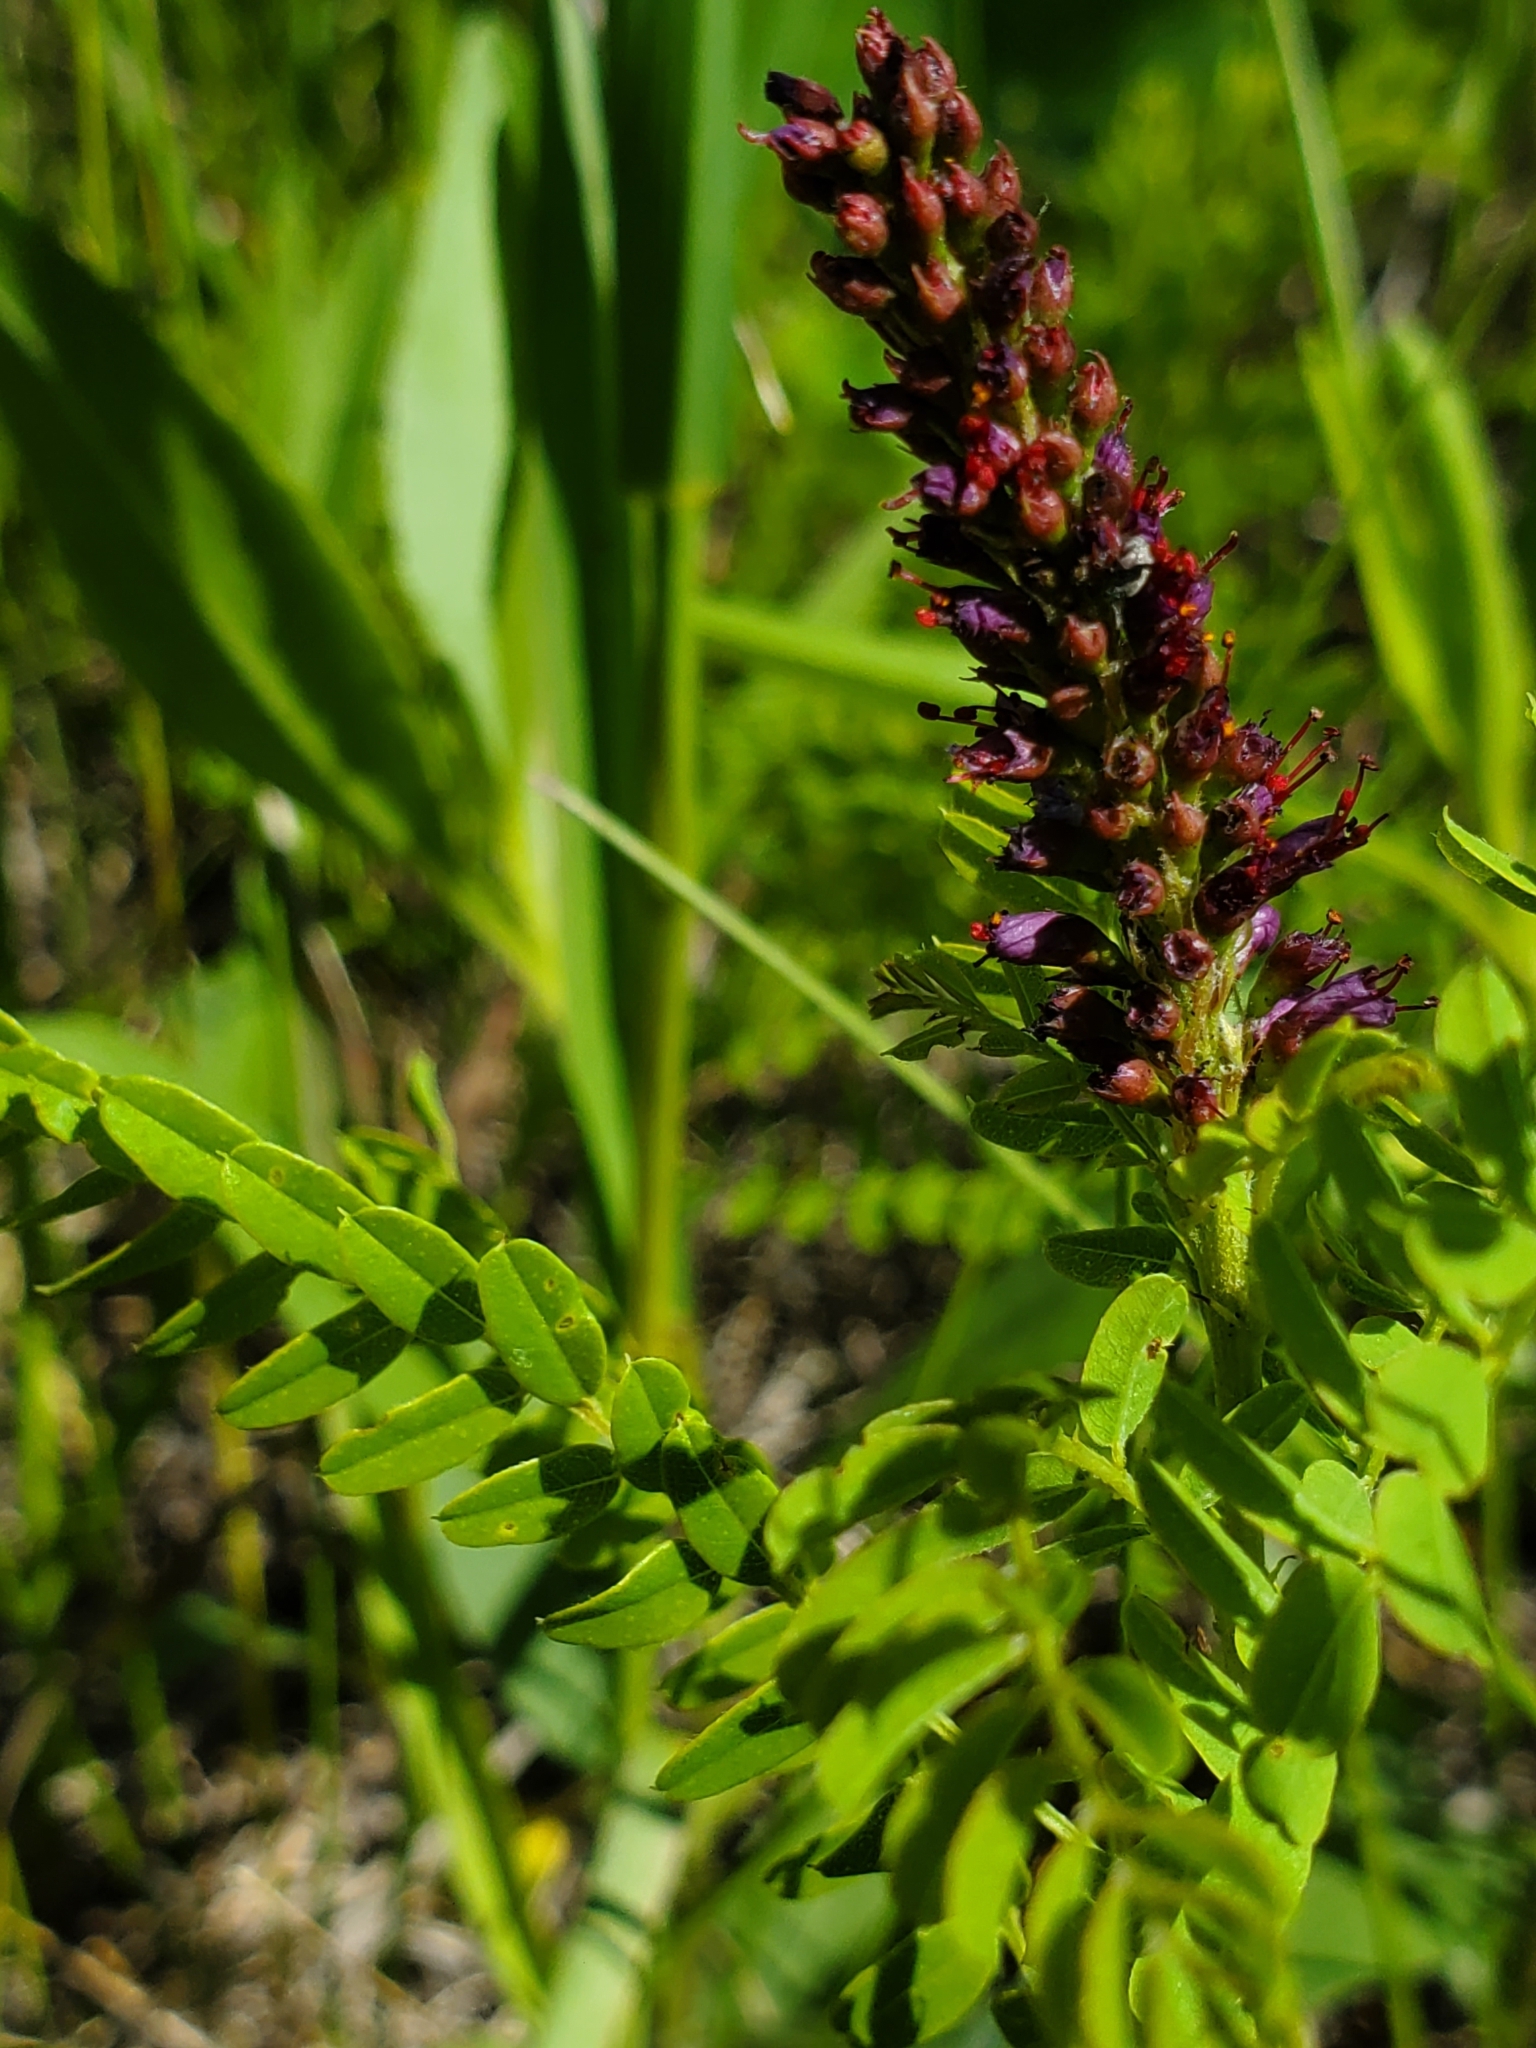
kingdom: Plantae
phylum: Tracheophyta
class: Magnoliopsida
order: Fabales
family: Fabaceae
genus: Amorpha
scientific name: Amorpha nana
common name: Fragrant false indigo
